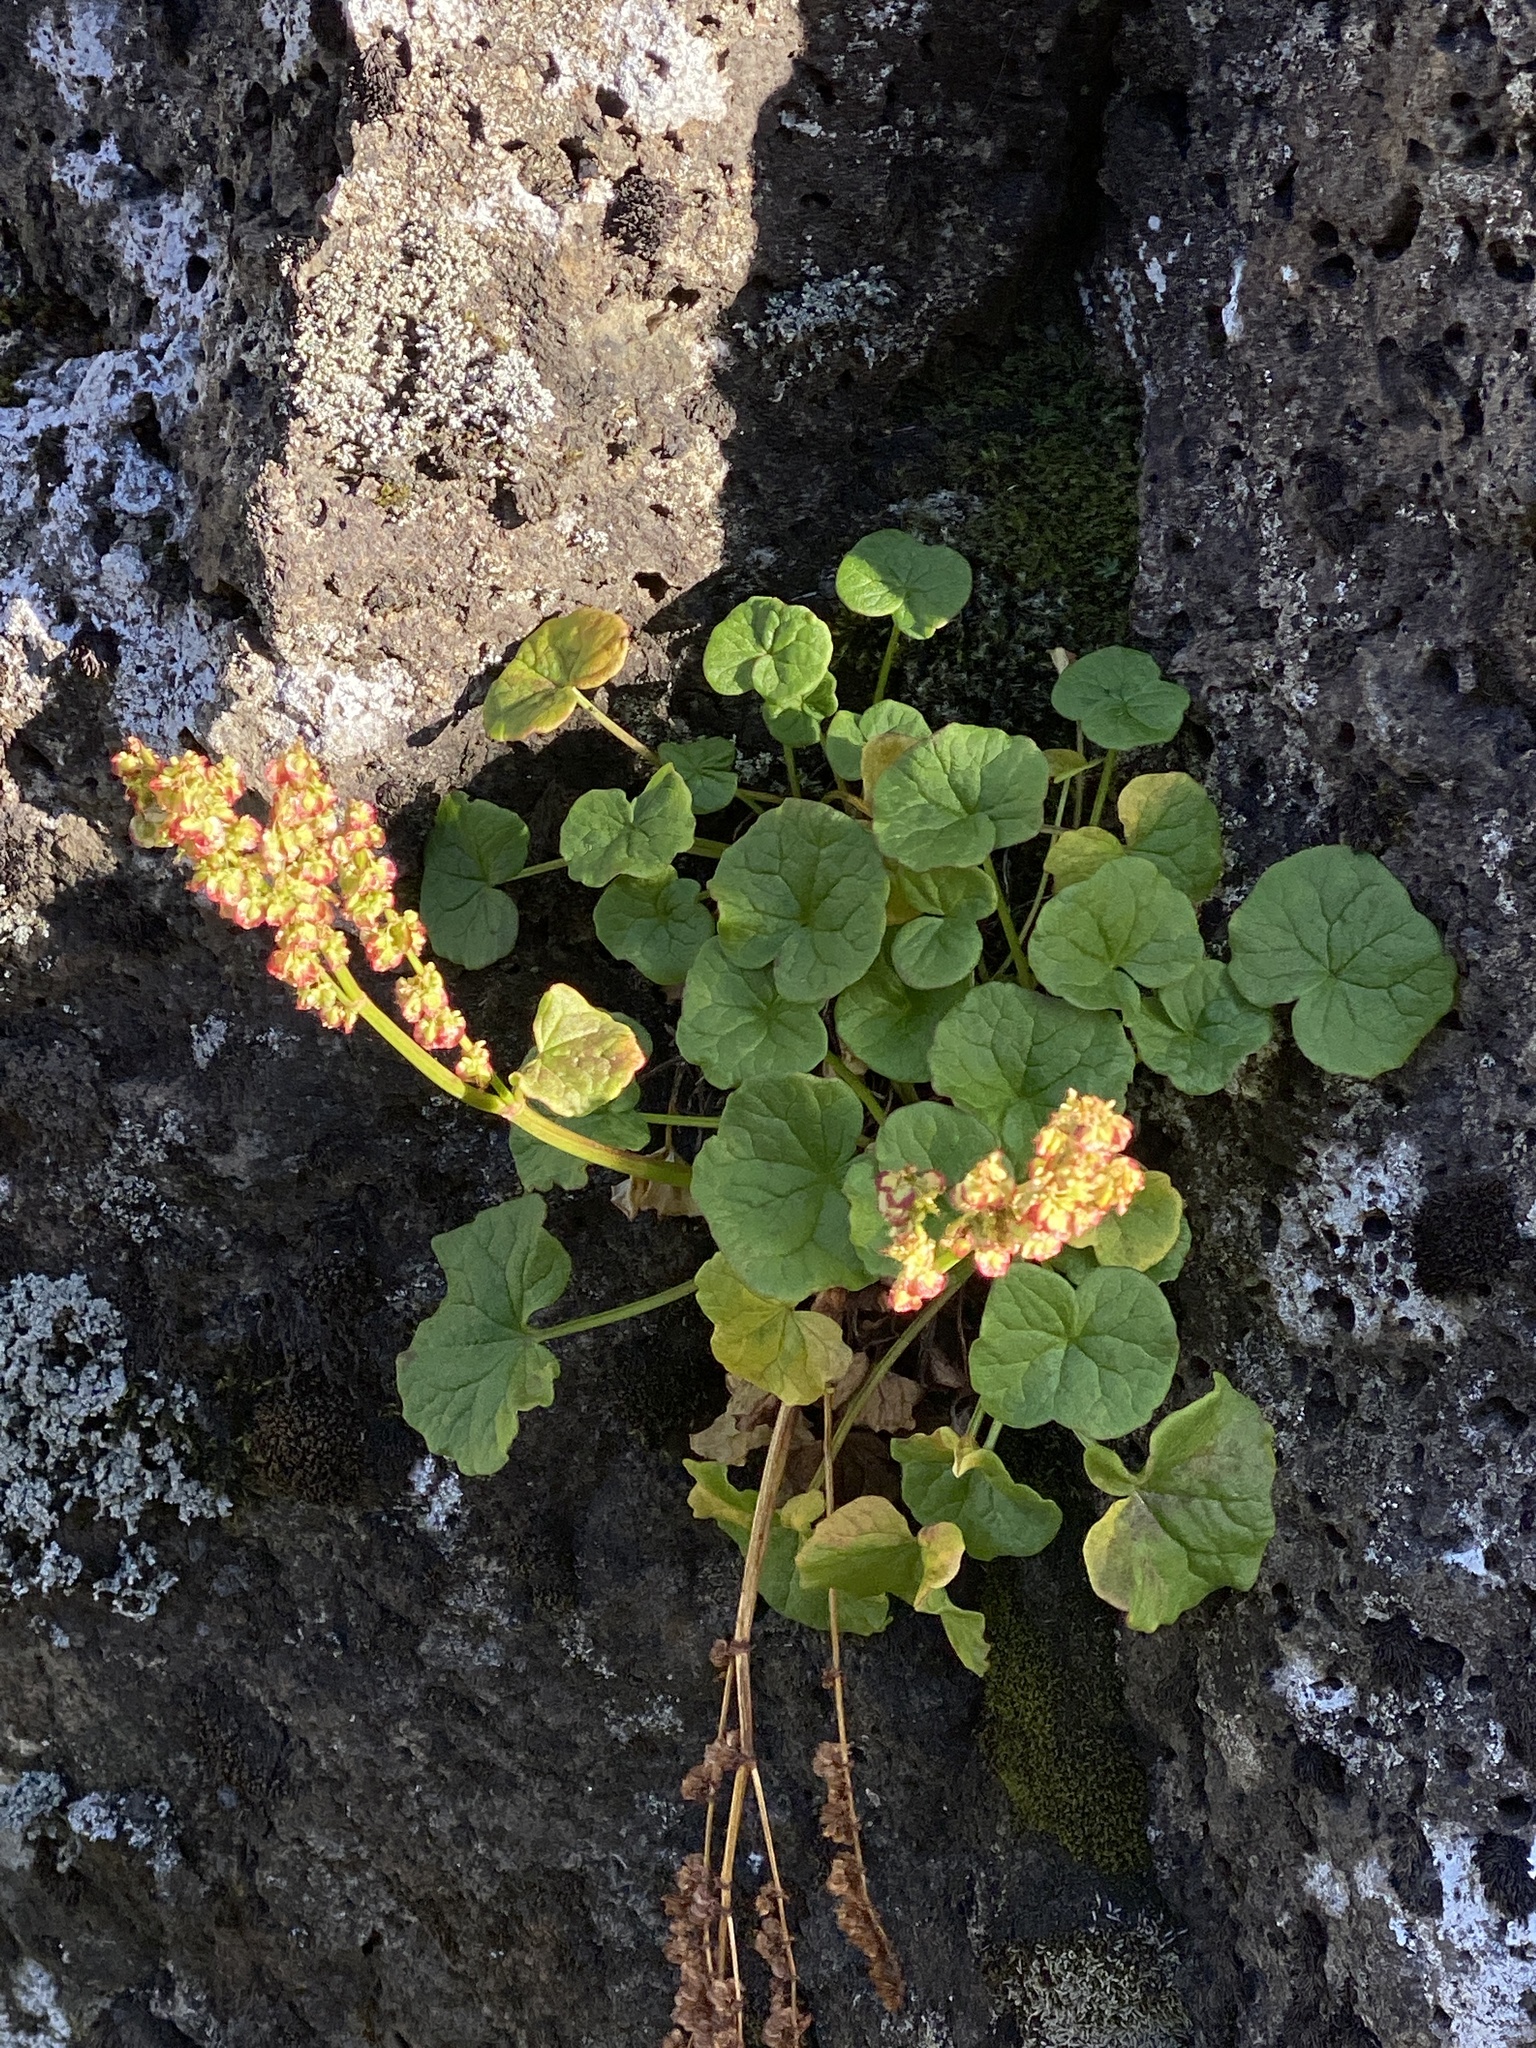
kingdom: Plantae
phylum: Tracheophyta
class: Magnoliopsida
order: Caryophyllales
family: Polygonaceae
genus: Oxyria
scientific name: Oxyria digyna
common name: Alpine mountain-sorrel
